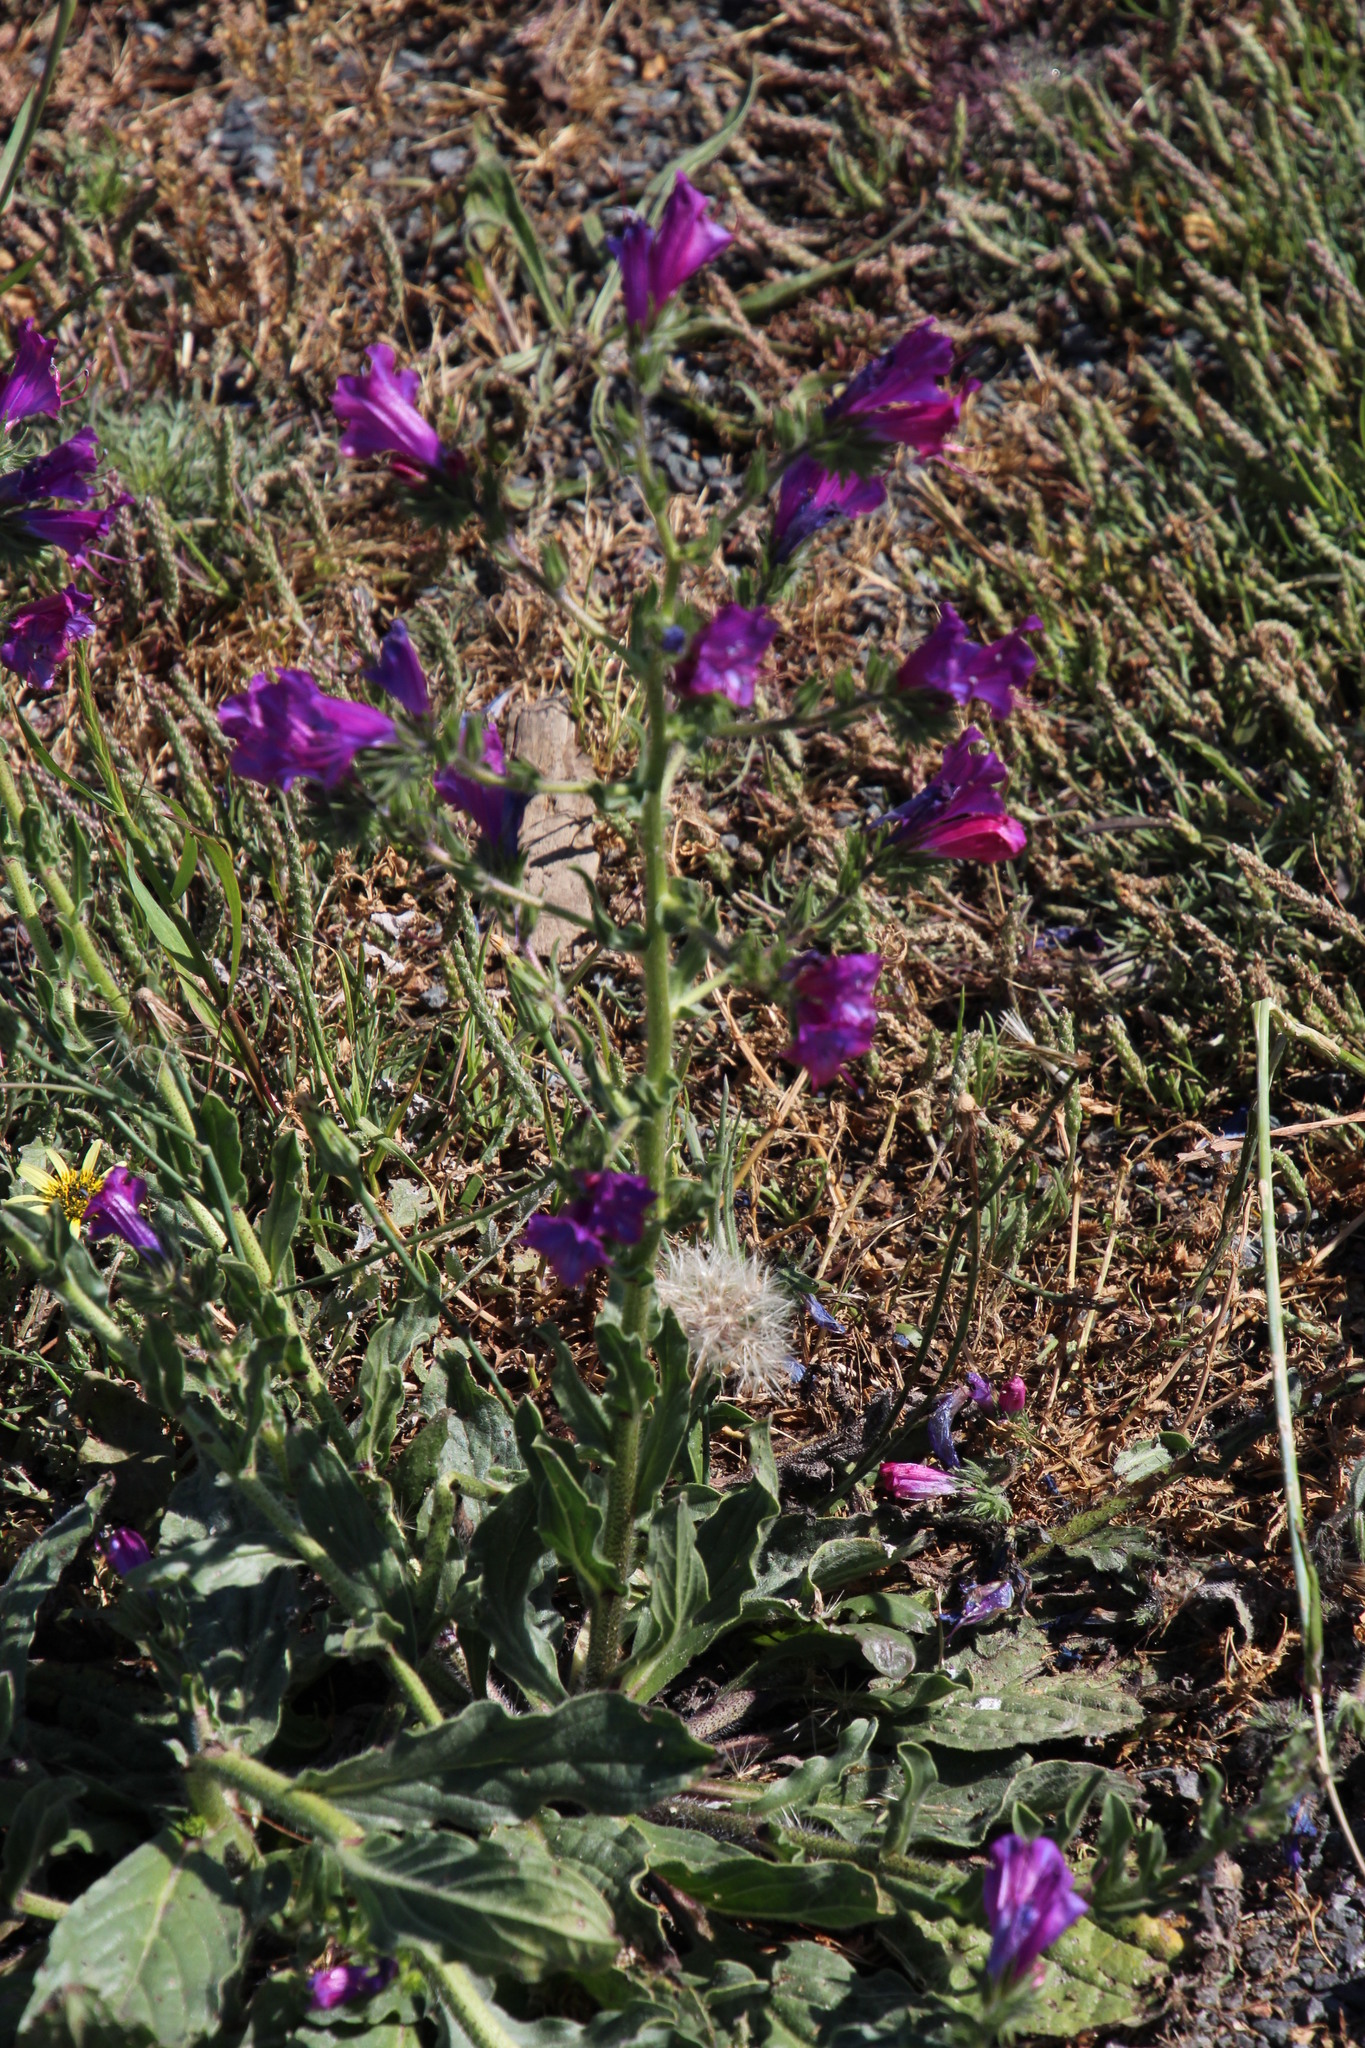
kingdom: Plantae
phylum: Tracheophyta
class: Magnoliopsida
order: Boraginales
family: Boraginaceae
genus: Echium
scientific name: Echium plantagineum
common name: Purple viper's-bugloss
